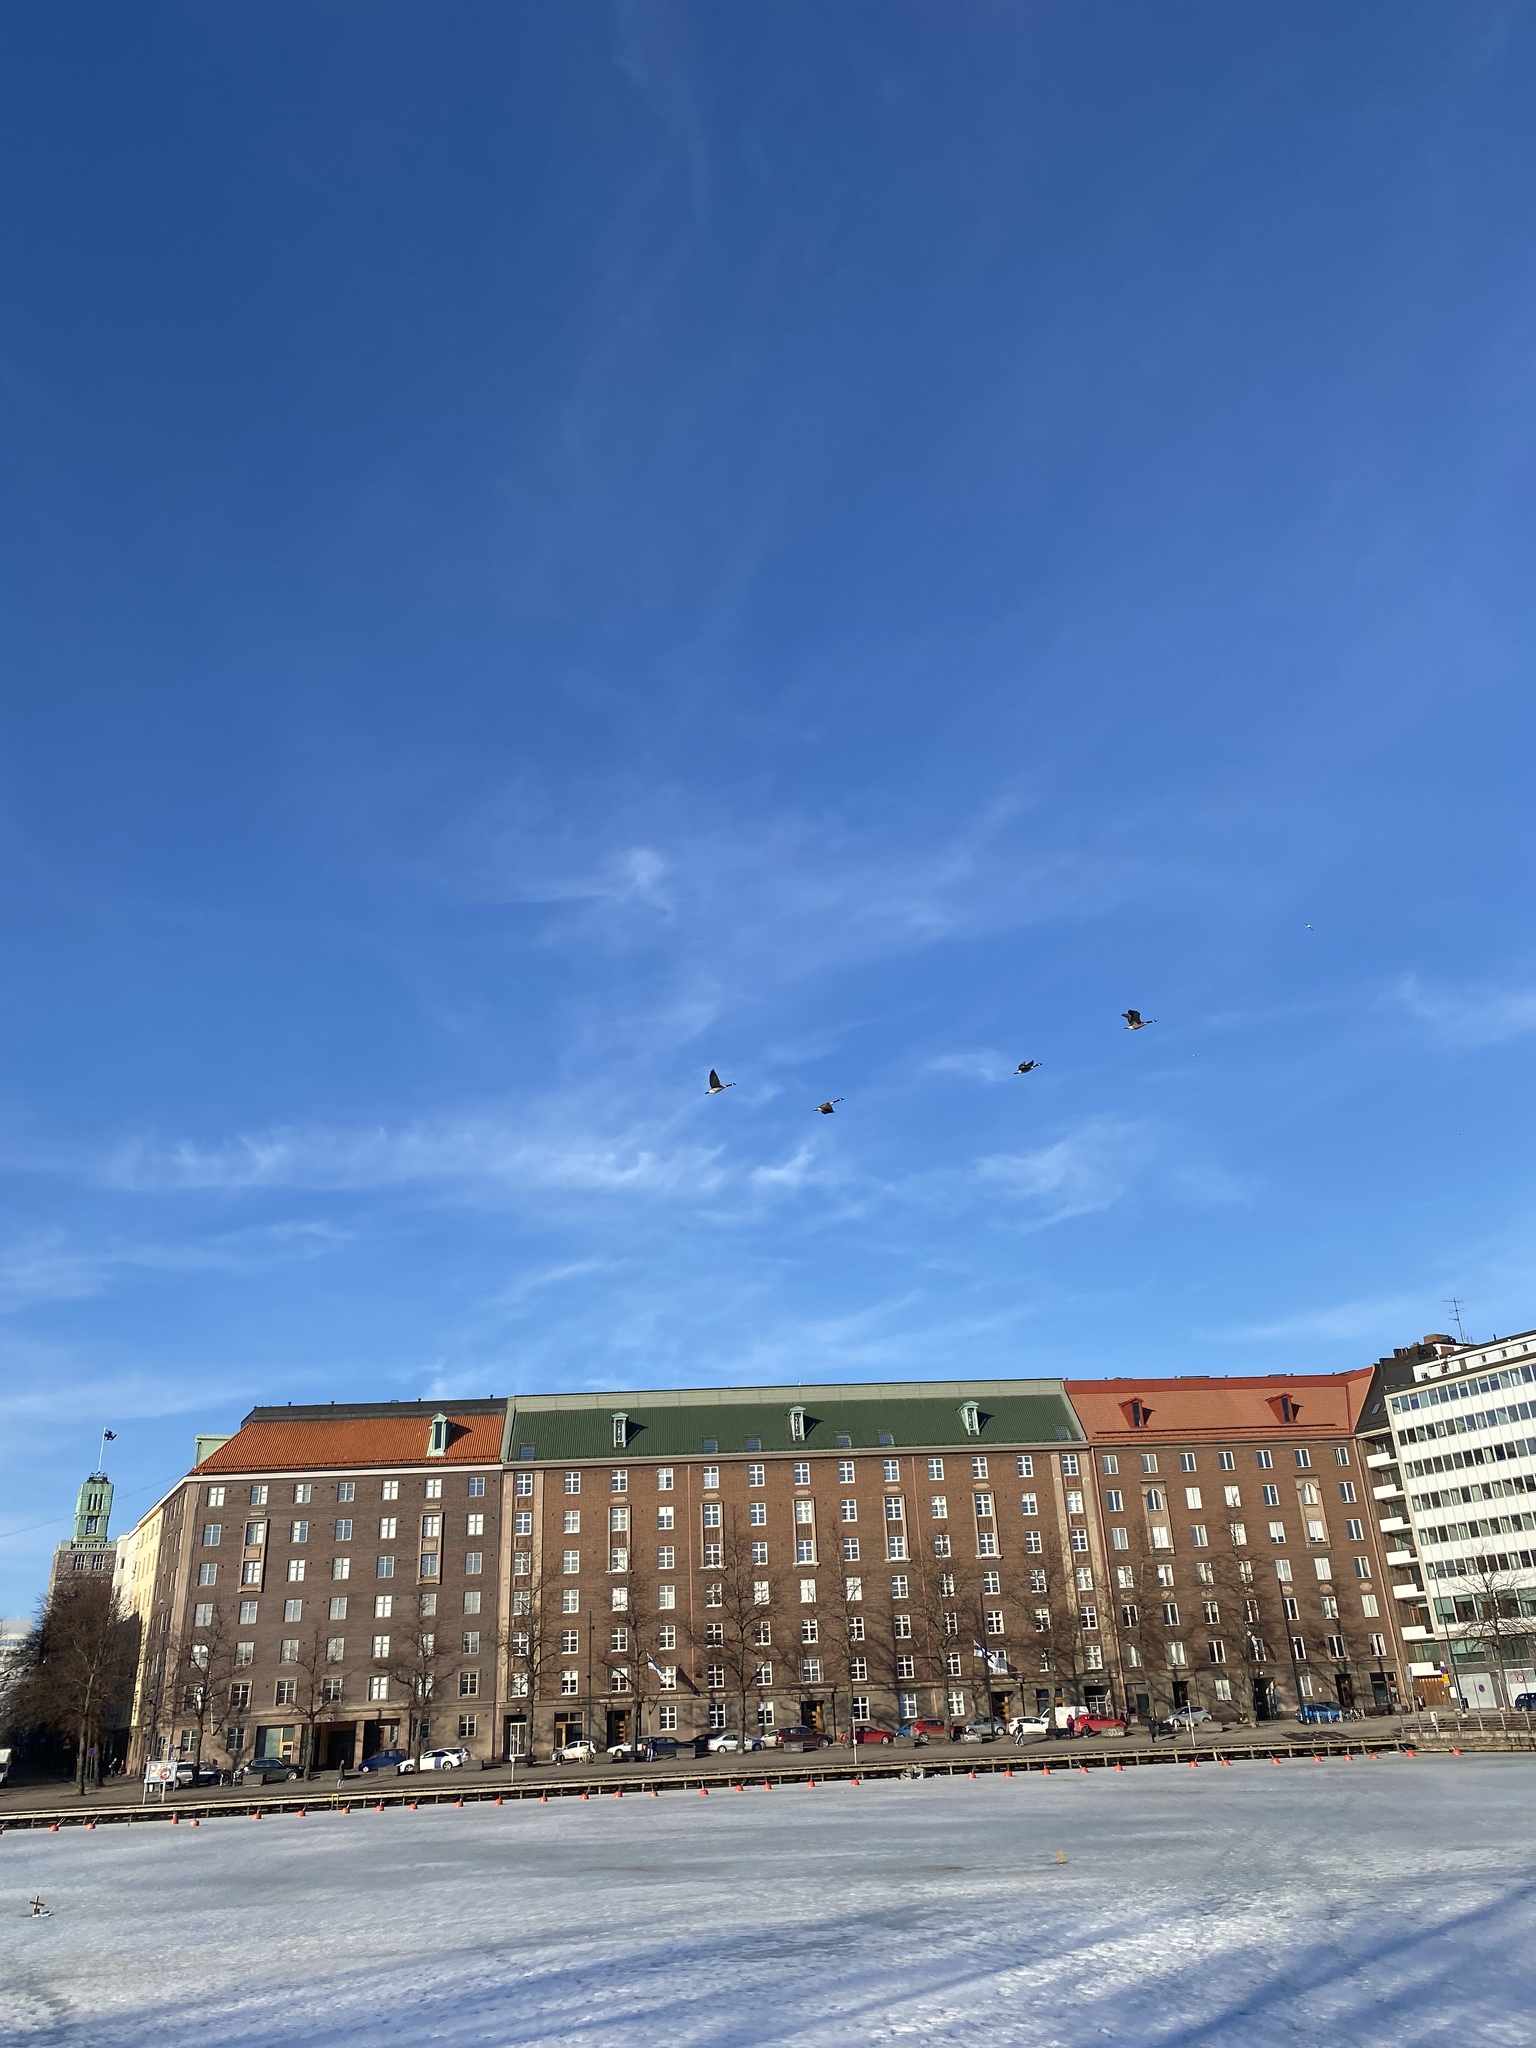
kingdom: Animalia
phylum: Chordata
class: Aves
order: Anseriformes
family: Anatidae
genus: Branta
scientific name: Branta canadensis
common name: Canada goose
